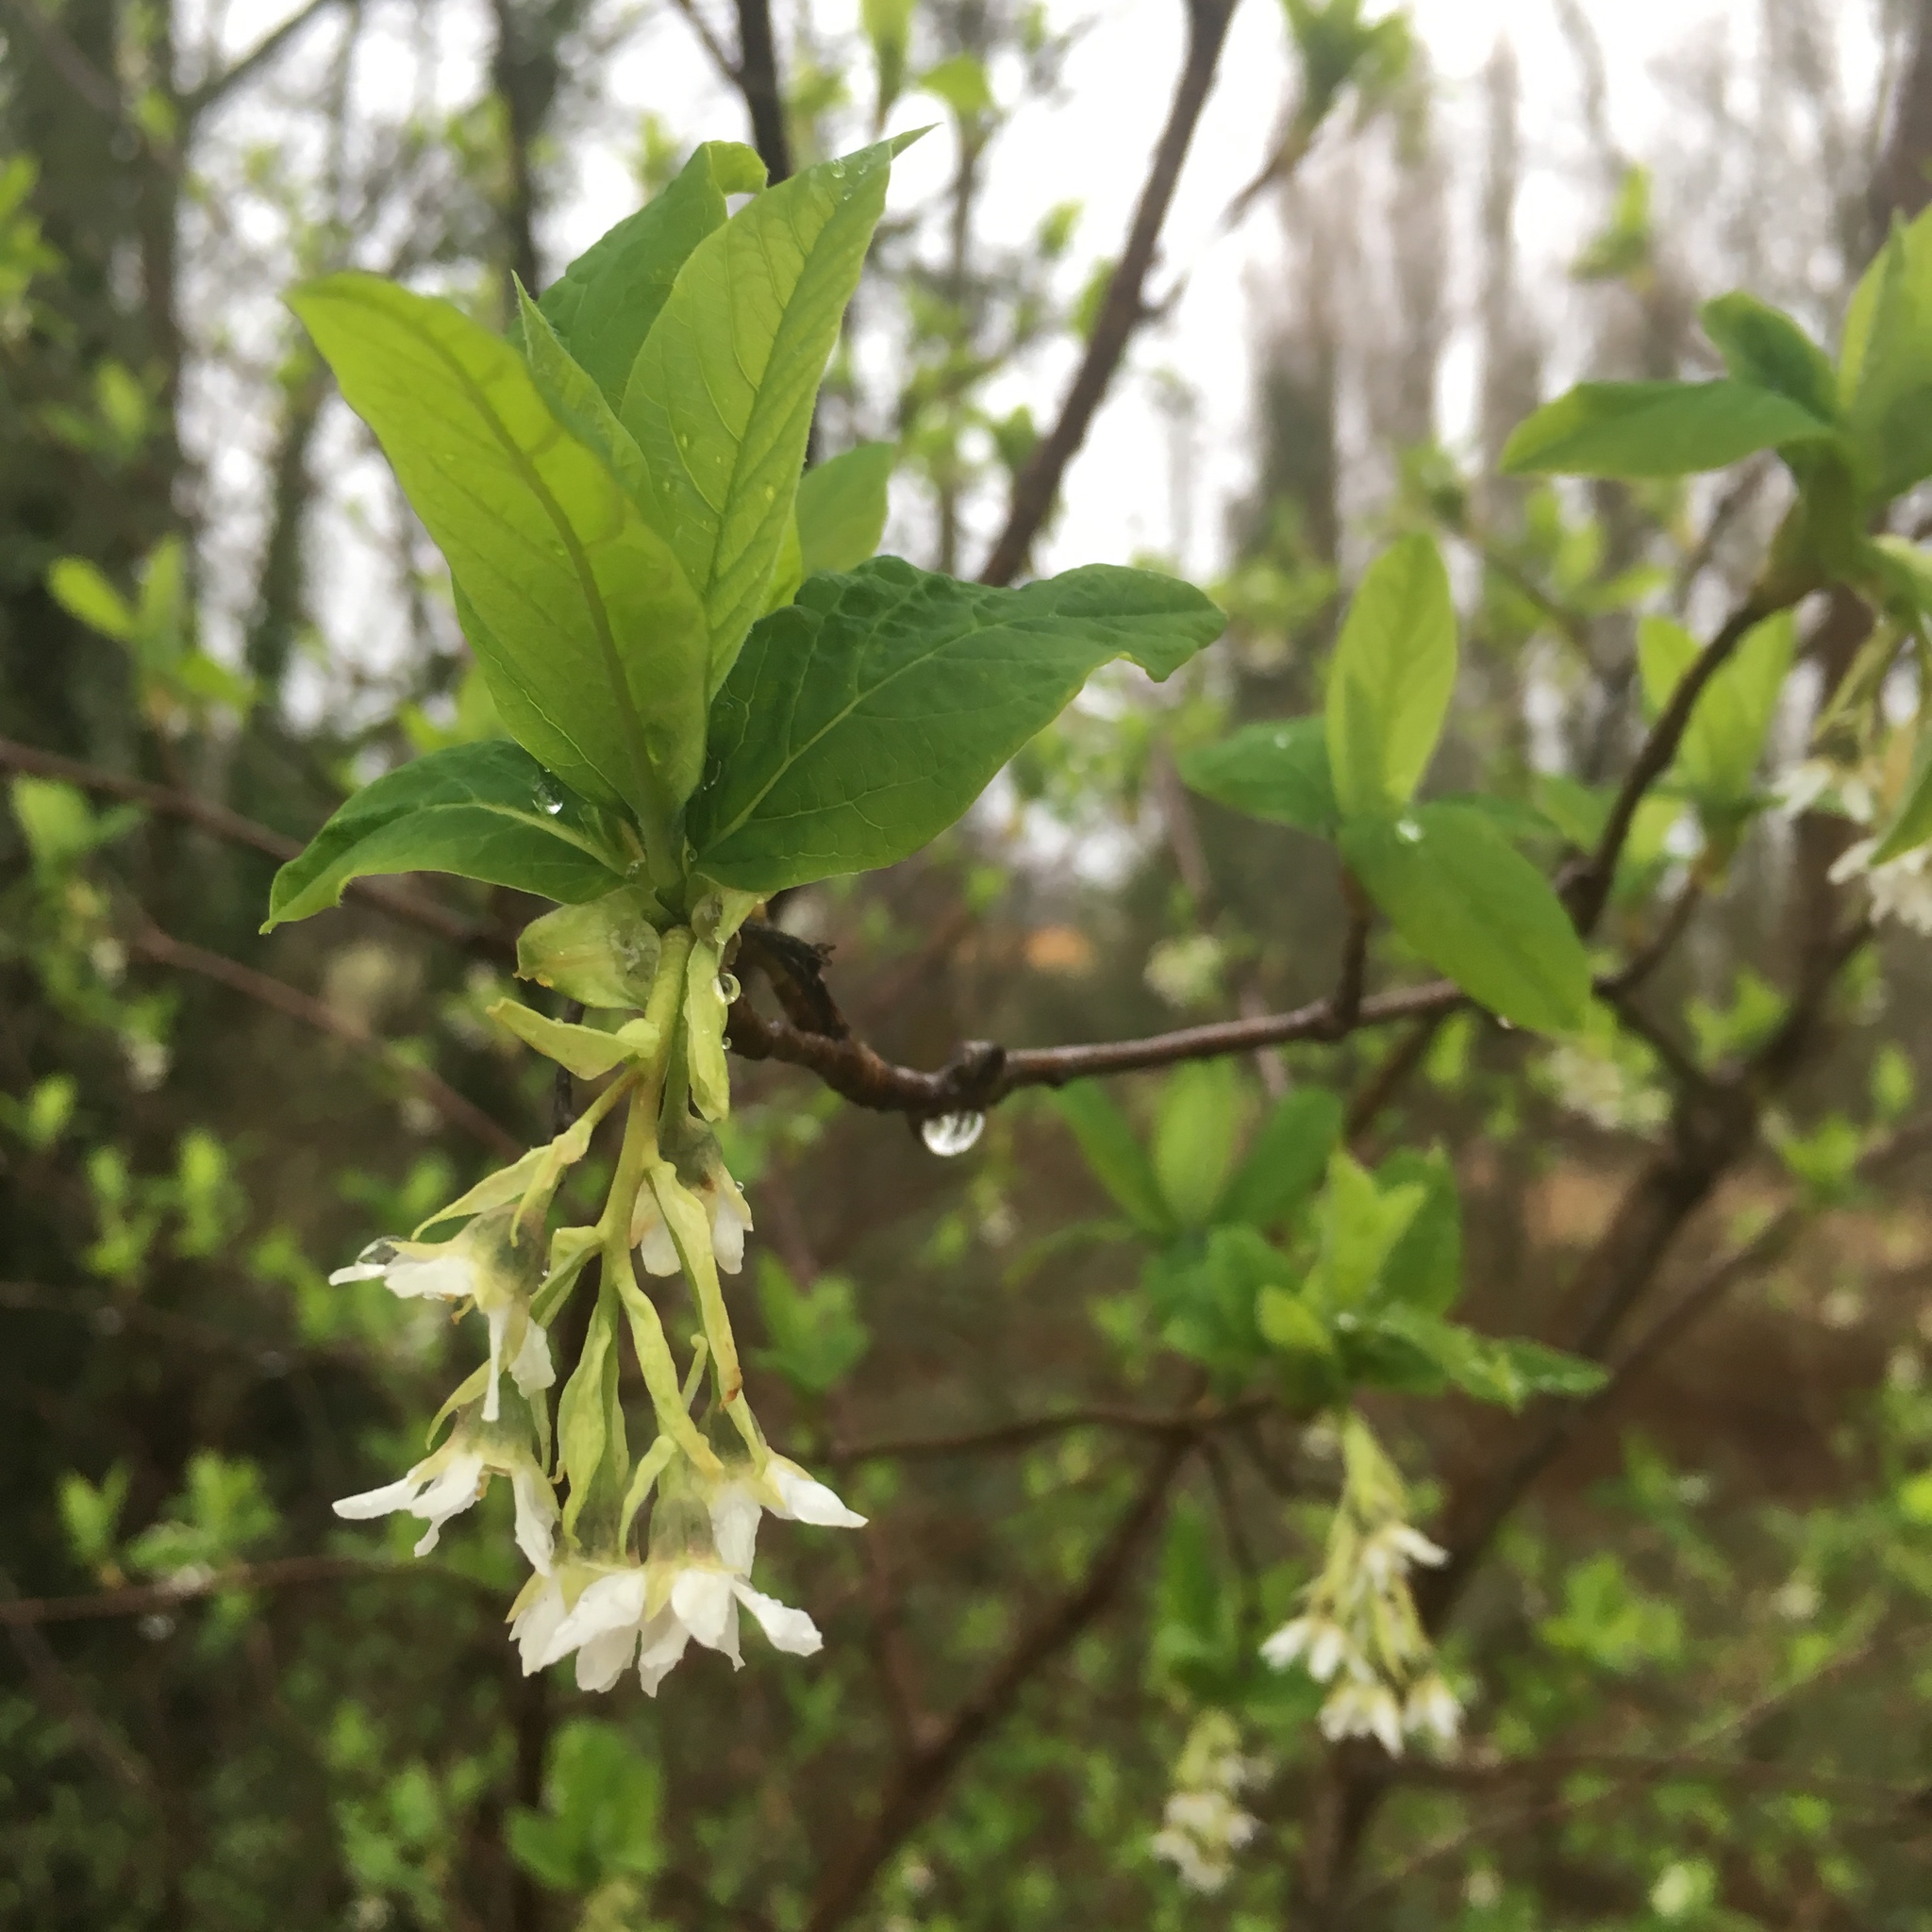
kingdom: Plantae
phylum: Tracheophyta
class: Magnoliopsida
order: Rosales
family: Rosaceae
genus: Oemleria
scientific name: Oemleria cerasiformis
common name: Osoberry
